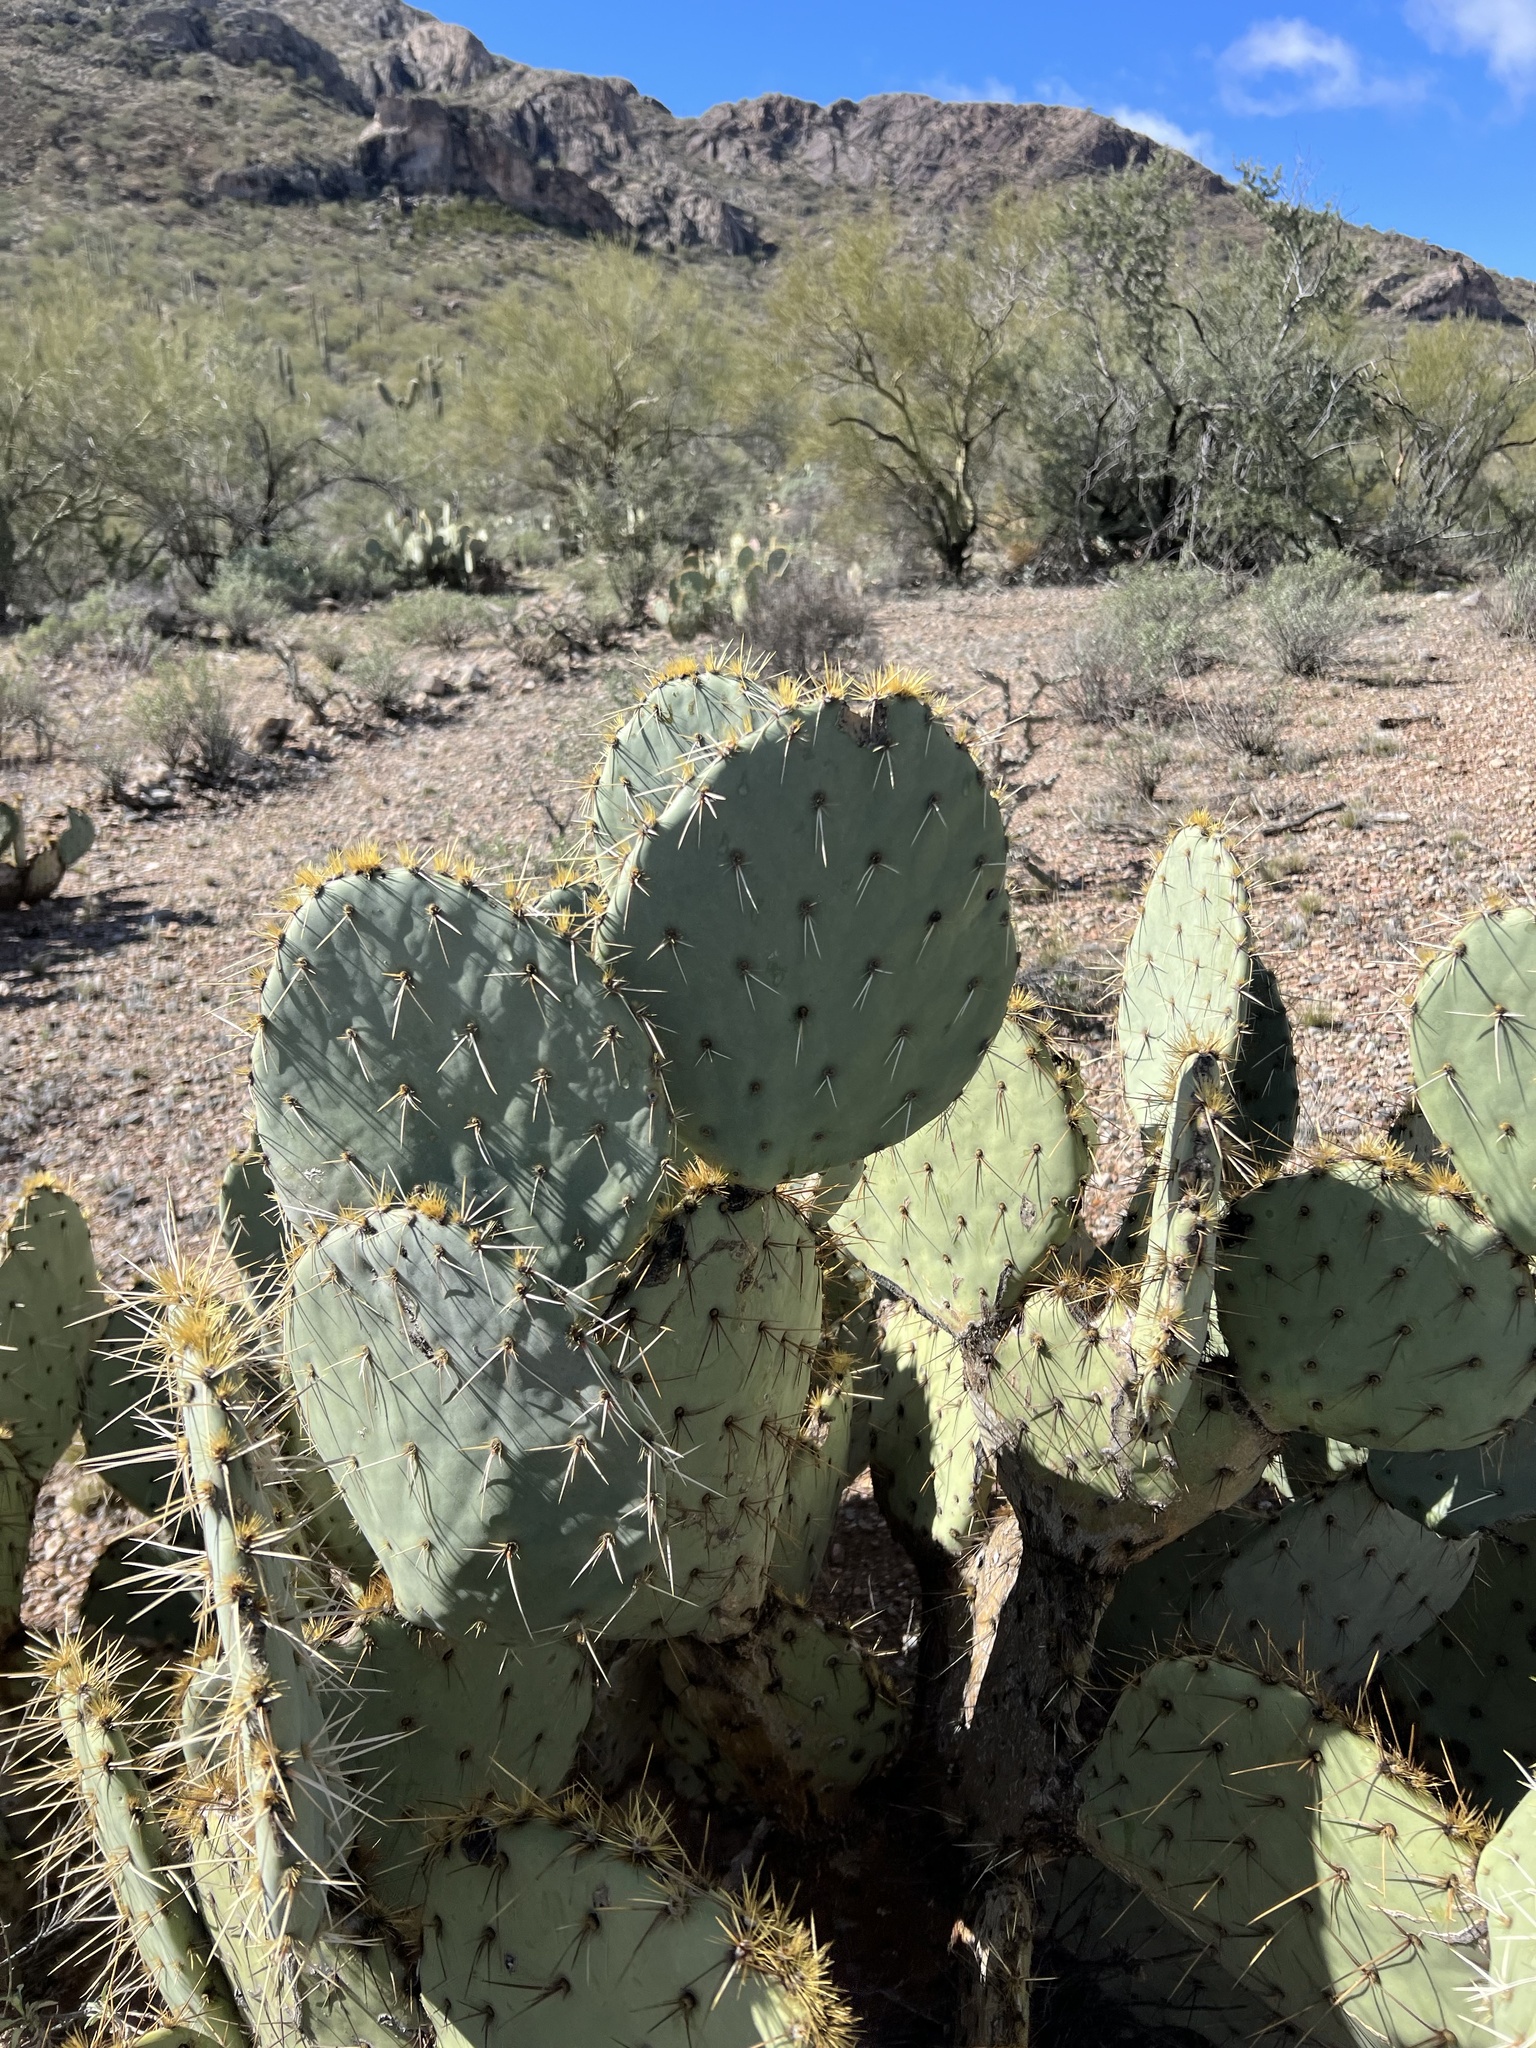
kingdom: Plantae
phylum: Tracheophyta
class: Magnoliopsida
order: Caryophyllales
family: Cactaceae
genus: Opuntia
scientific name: Opuntia engelmannii
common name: Cactus-apple
